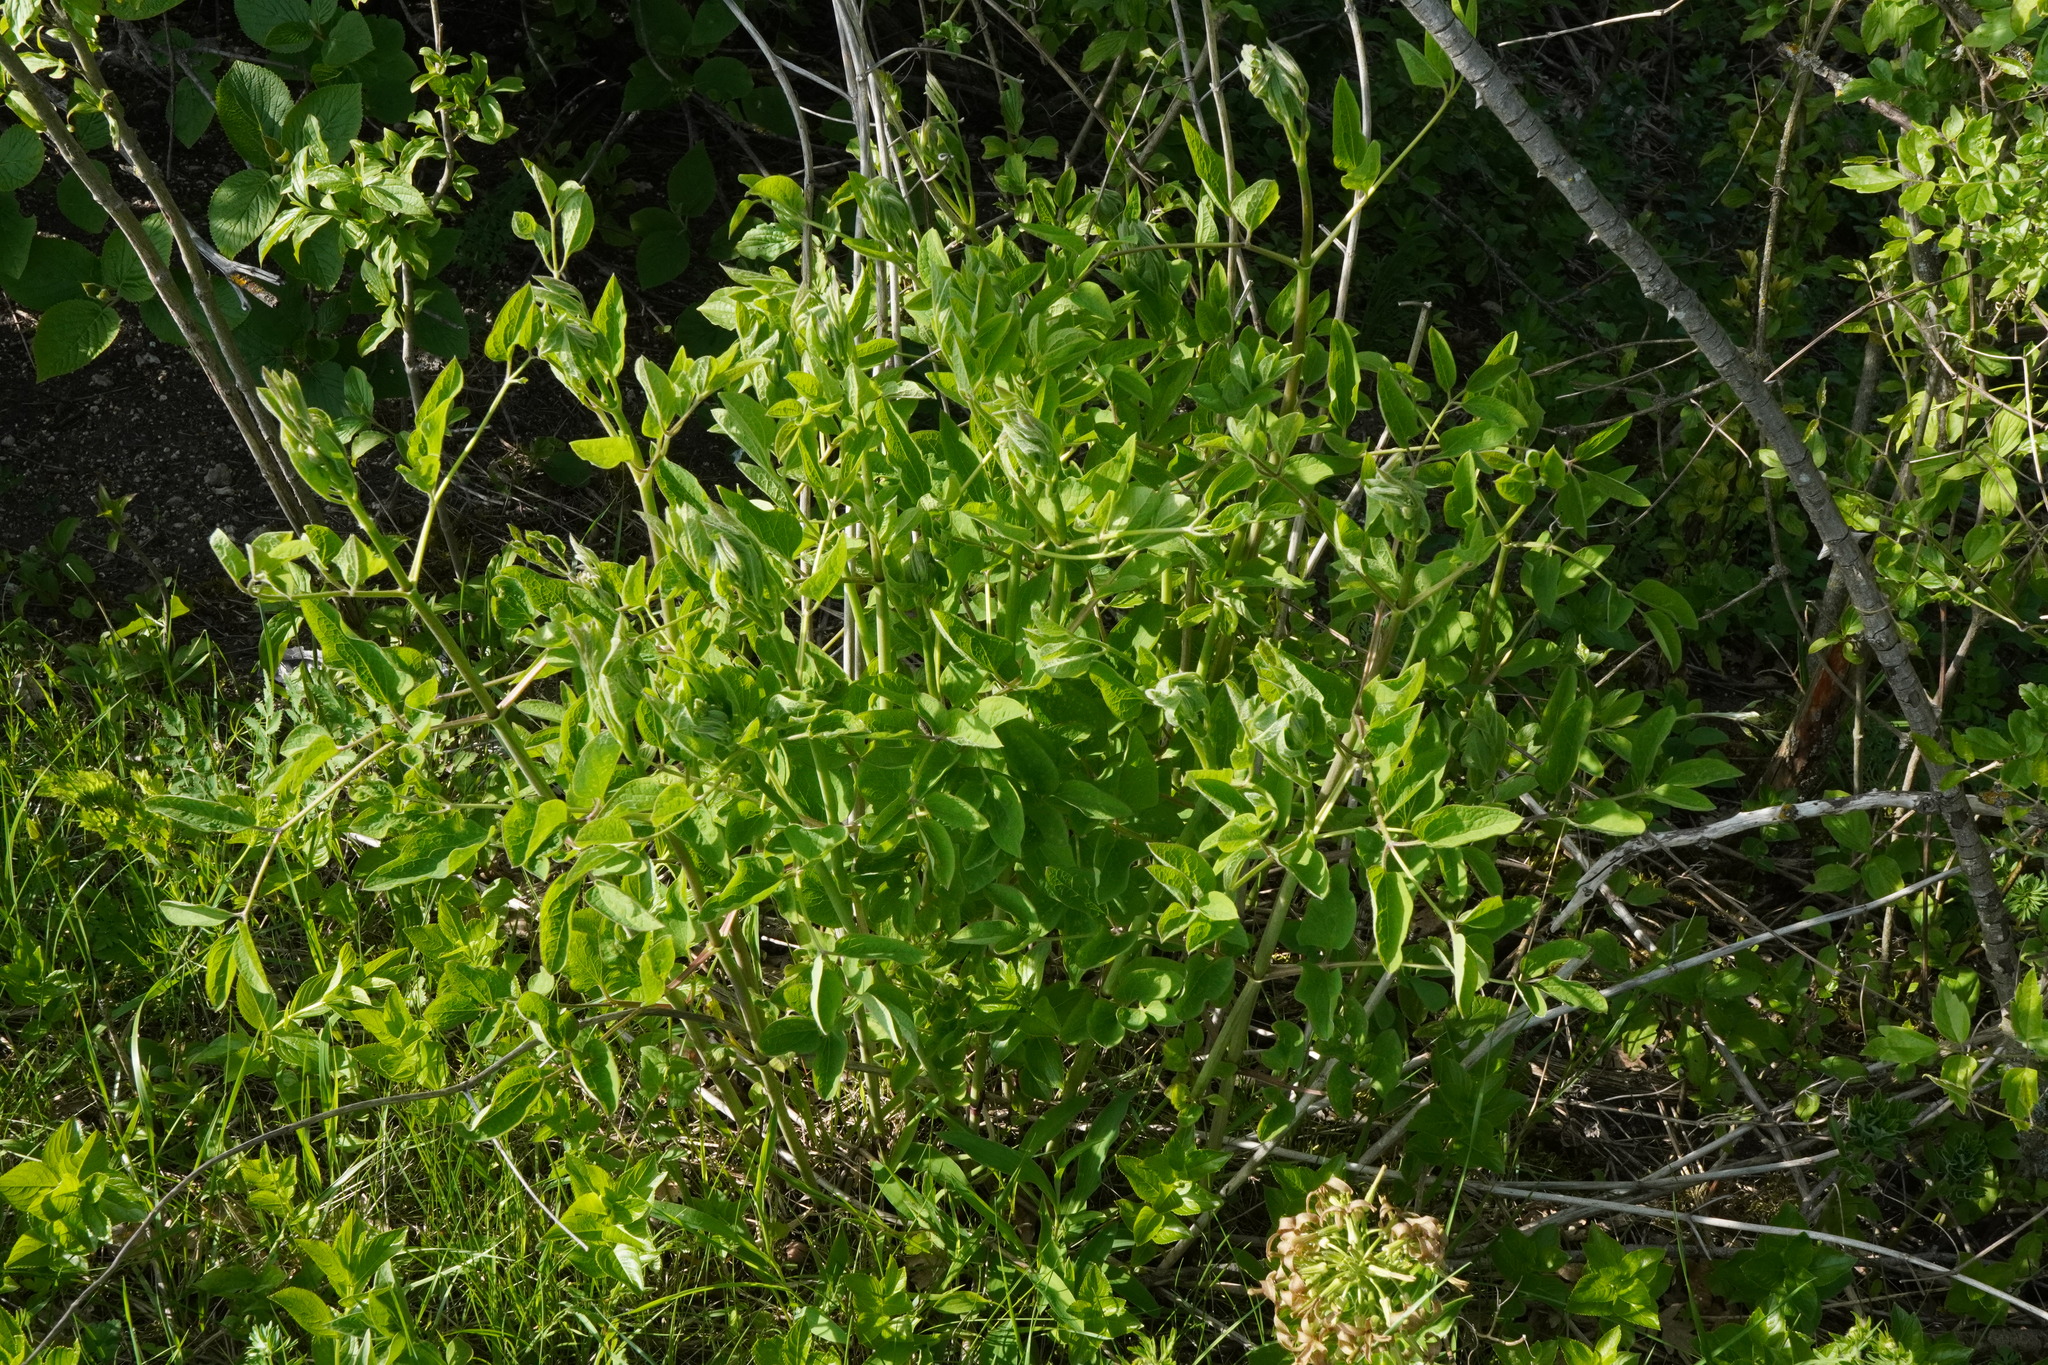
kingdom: Plantae
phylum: Tracheophyta
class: Magnoliopsida
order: Ranunculales
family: Ranunculaceae
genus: Clematis
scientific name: Clematis recta
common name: Ground clematis
